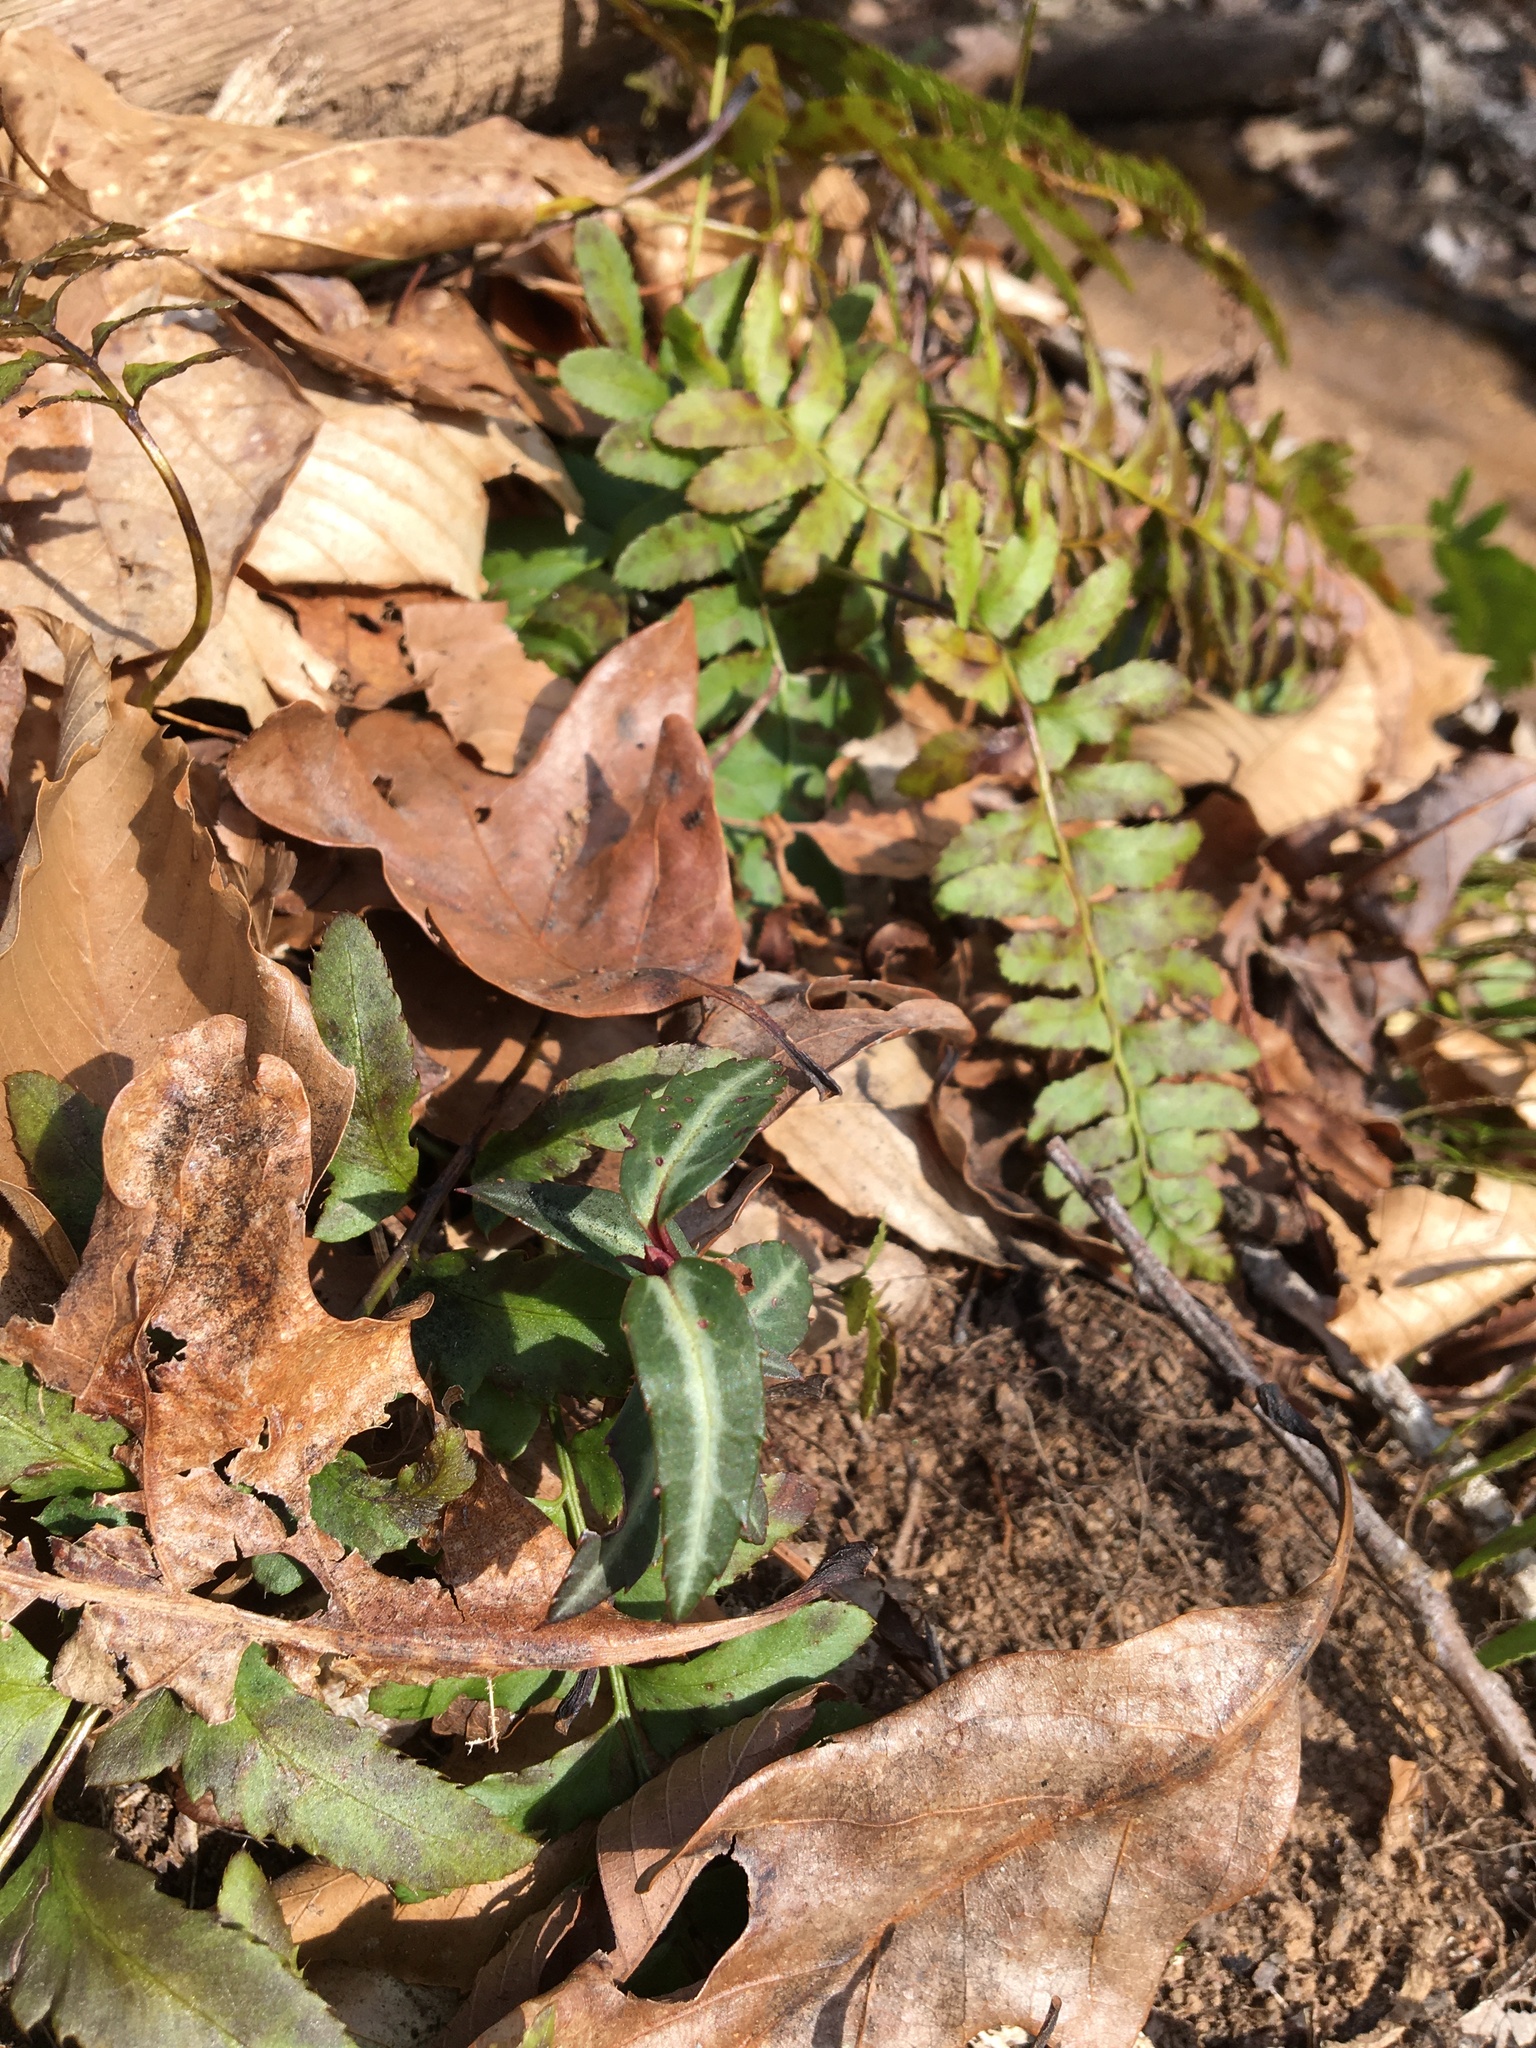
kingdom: Plantae
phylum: Tracheophyta
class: Magnoliopsida
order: Ericales
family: Ericaceae
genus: Chimaphila
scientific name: Chimaphila maculata
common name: Spotted pipsissewa
